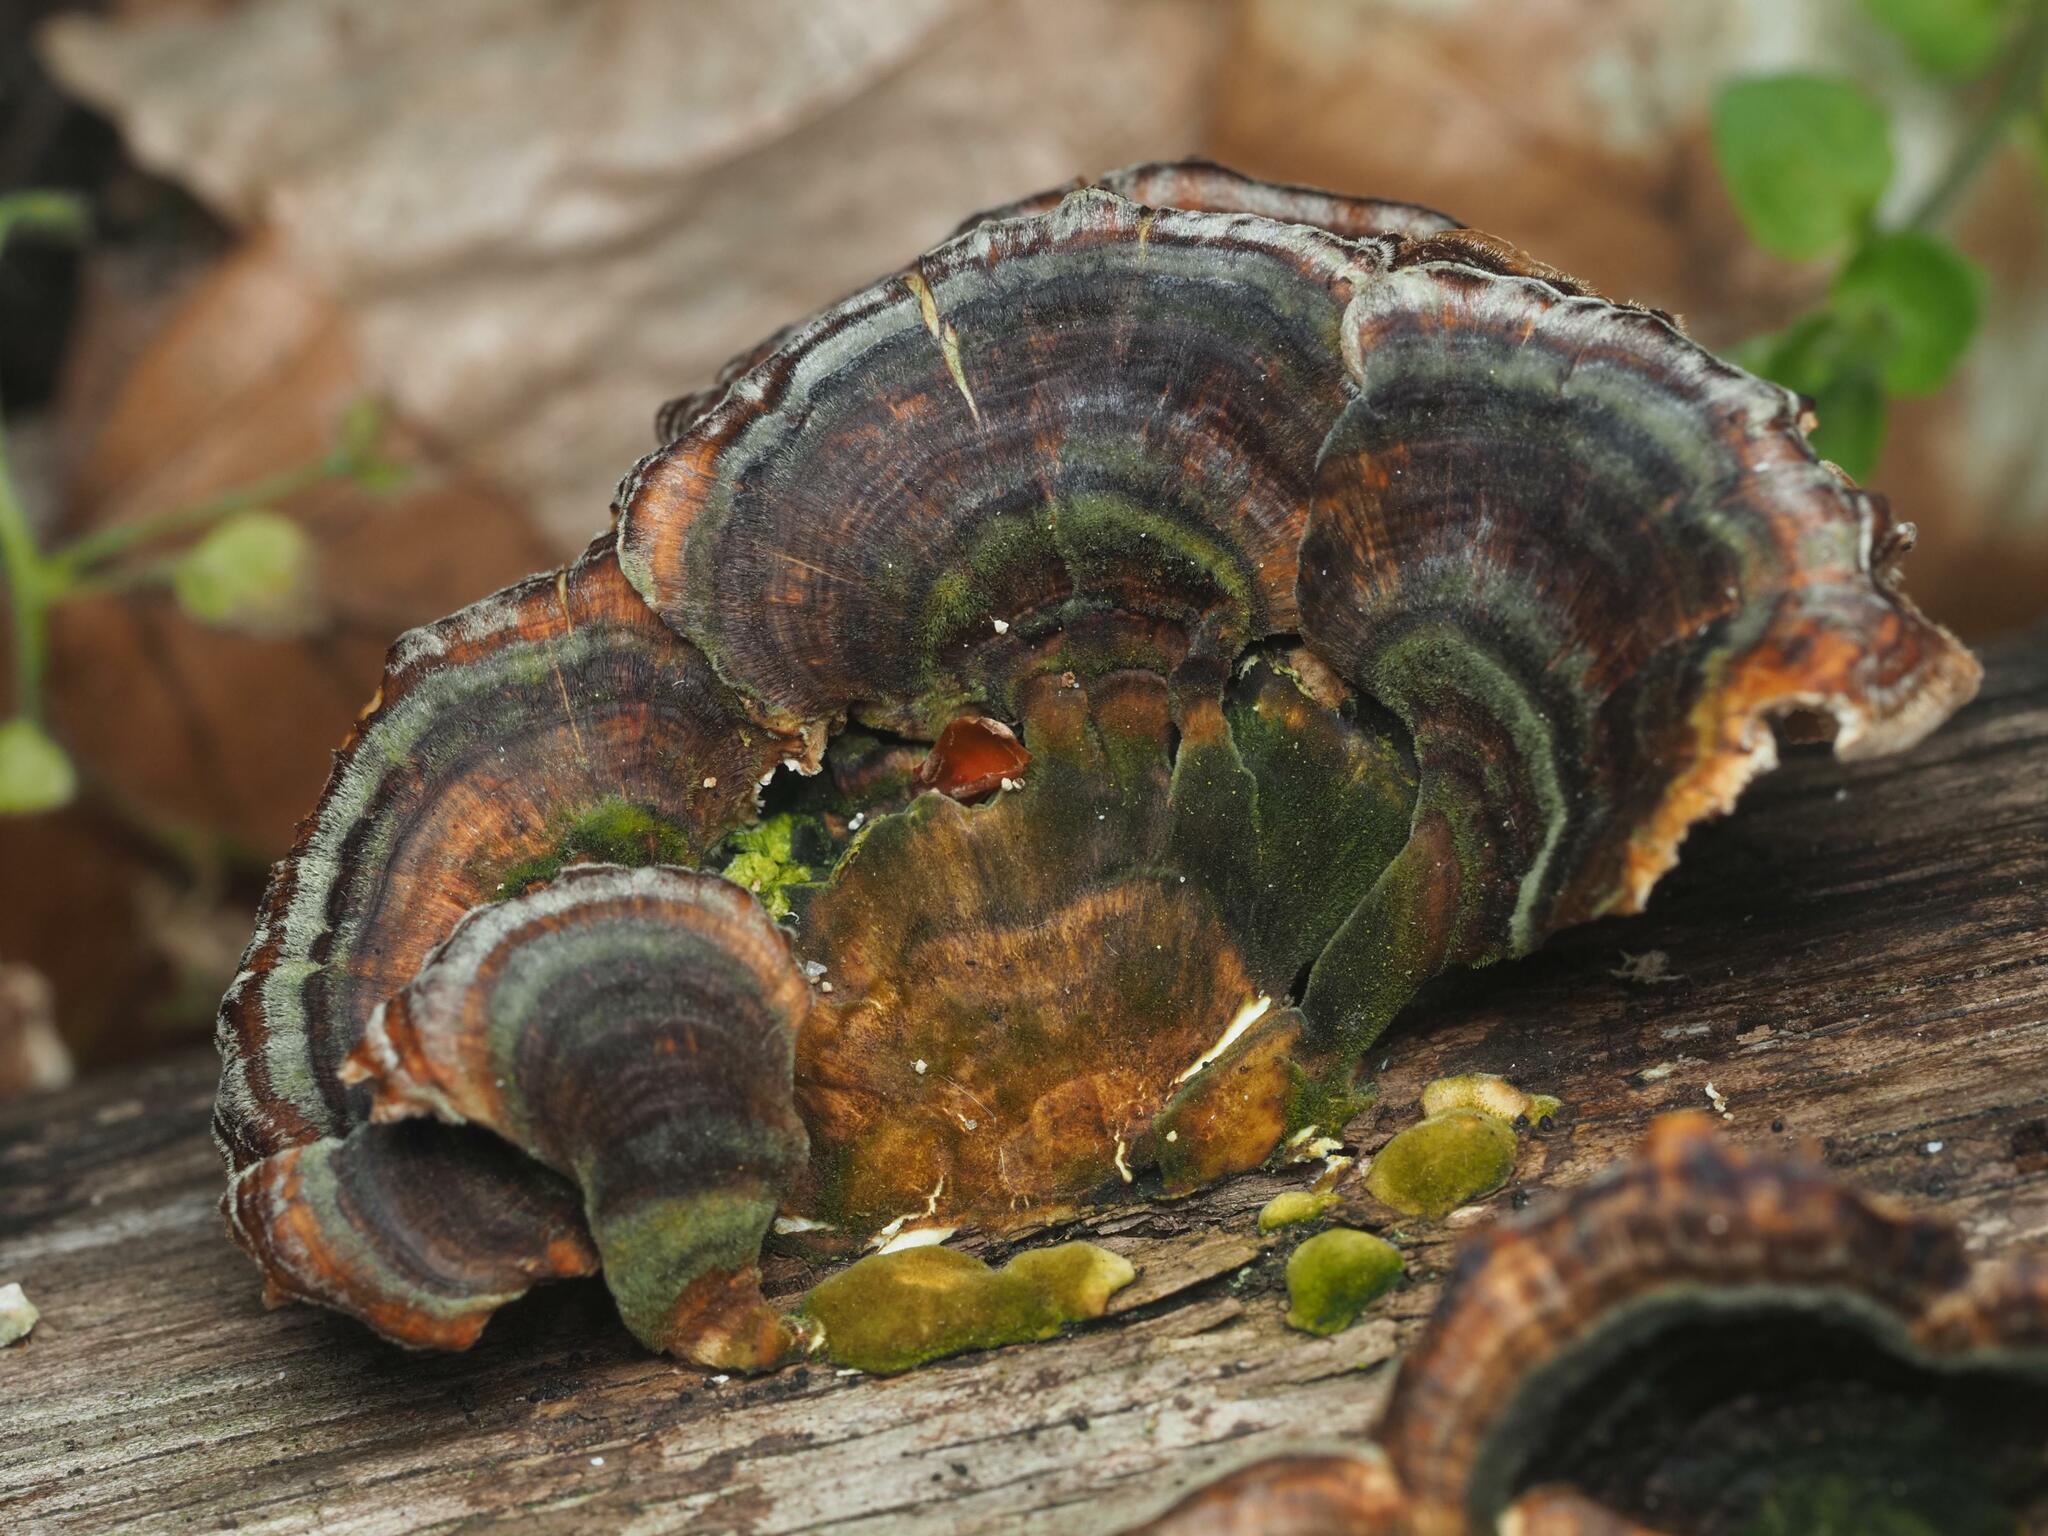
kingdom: Fungi
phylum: Basidiomycota
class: Agaricomycetes
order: Polyporales
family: Polyporaceae
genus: Trametes
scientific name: Trametes versicolor
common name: Turkeytail
